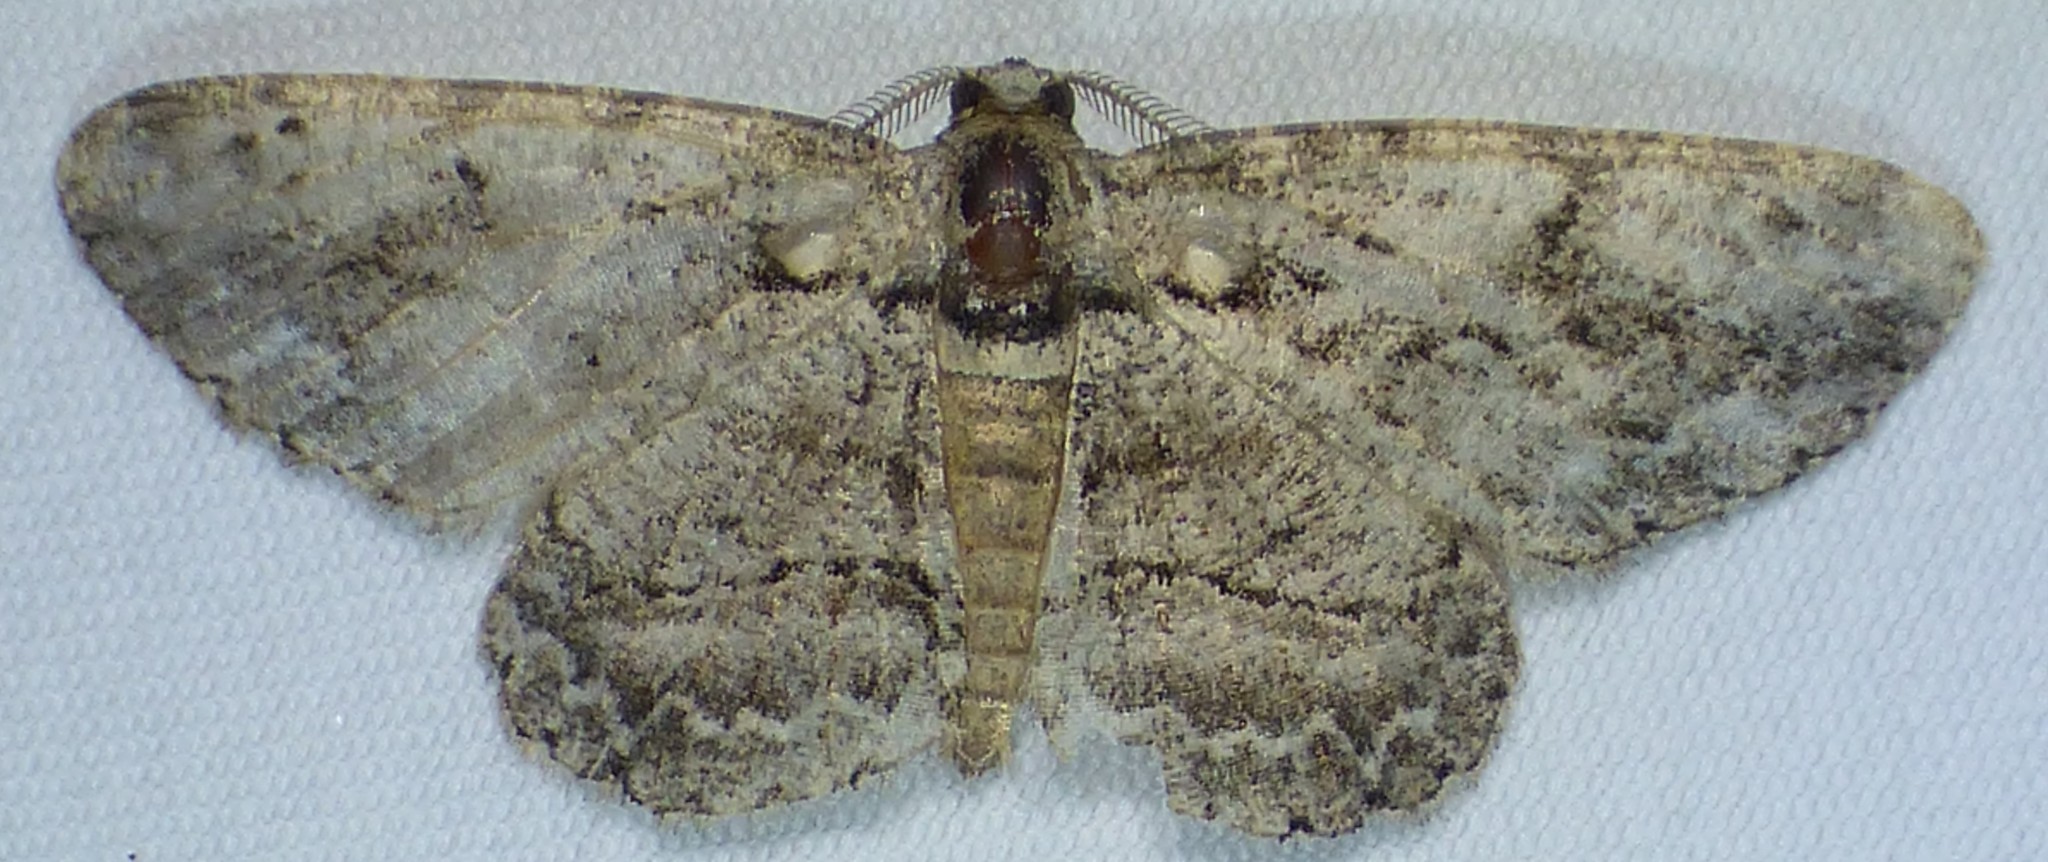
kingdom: Animalia
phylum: Arthropoda
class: Insecta
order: Lepidoptera
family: Geometridae
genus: Anavitrinella
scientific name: Anavitrinella pampinaria
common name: Common gray
